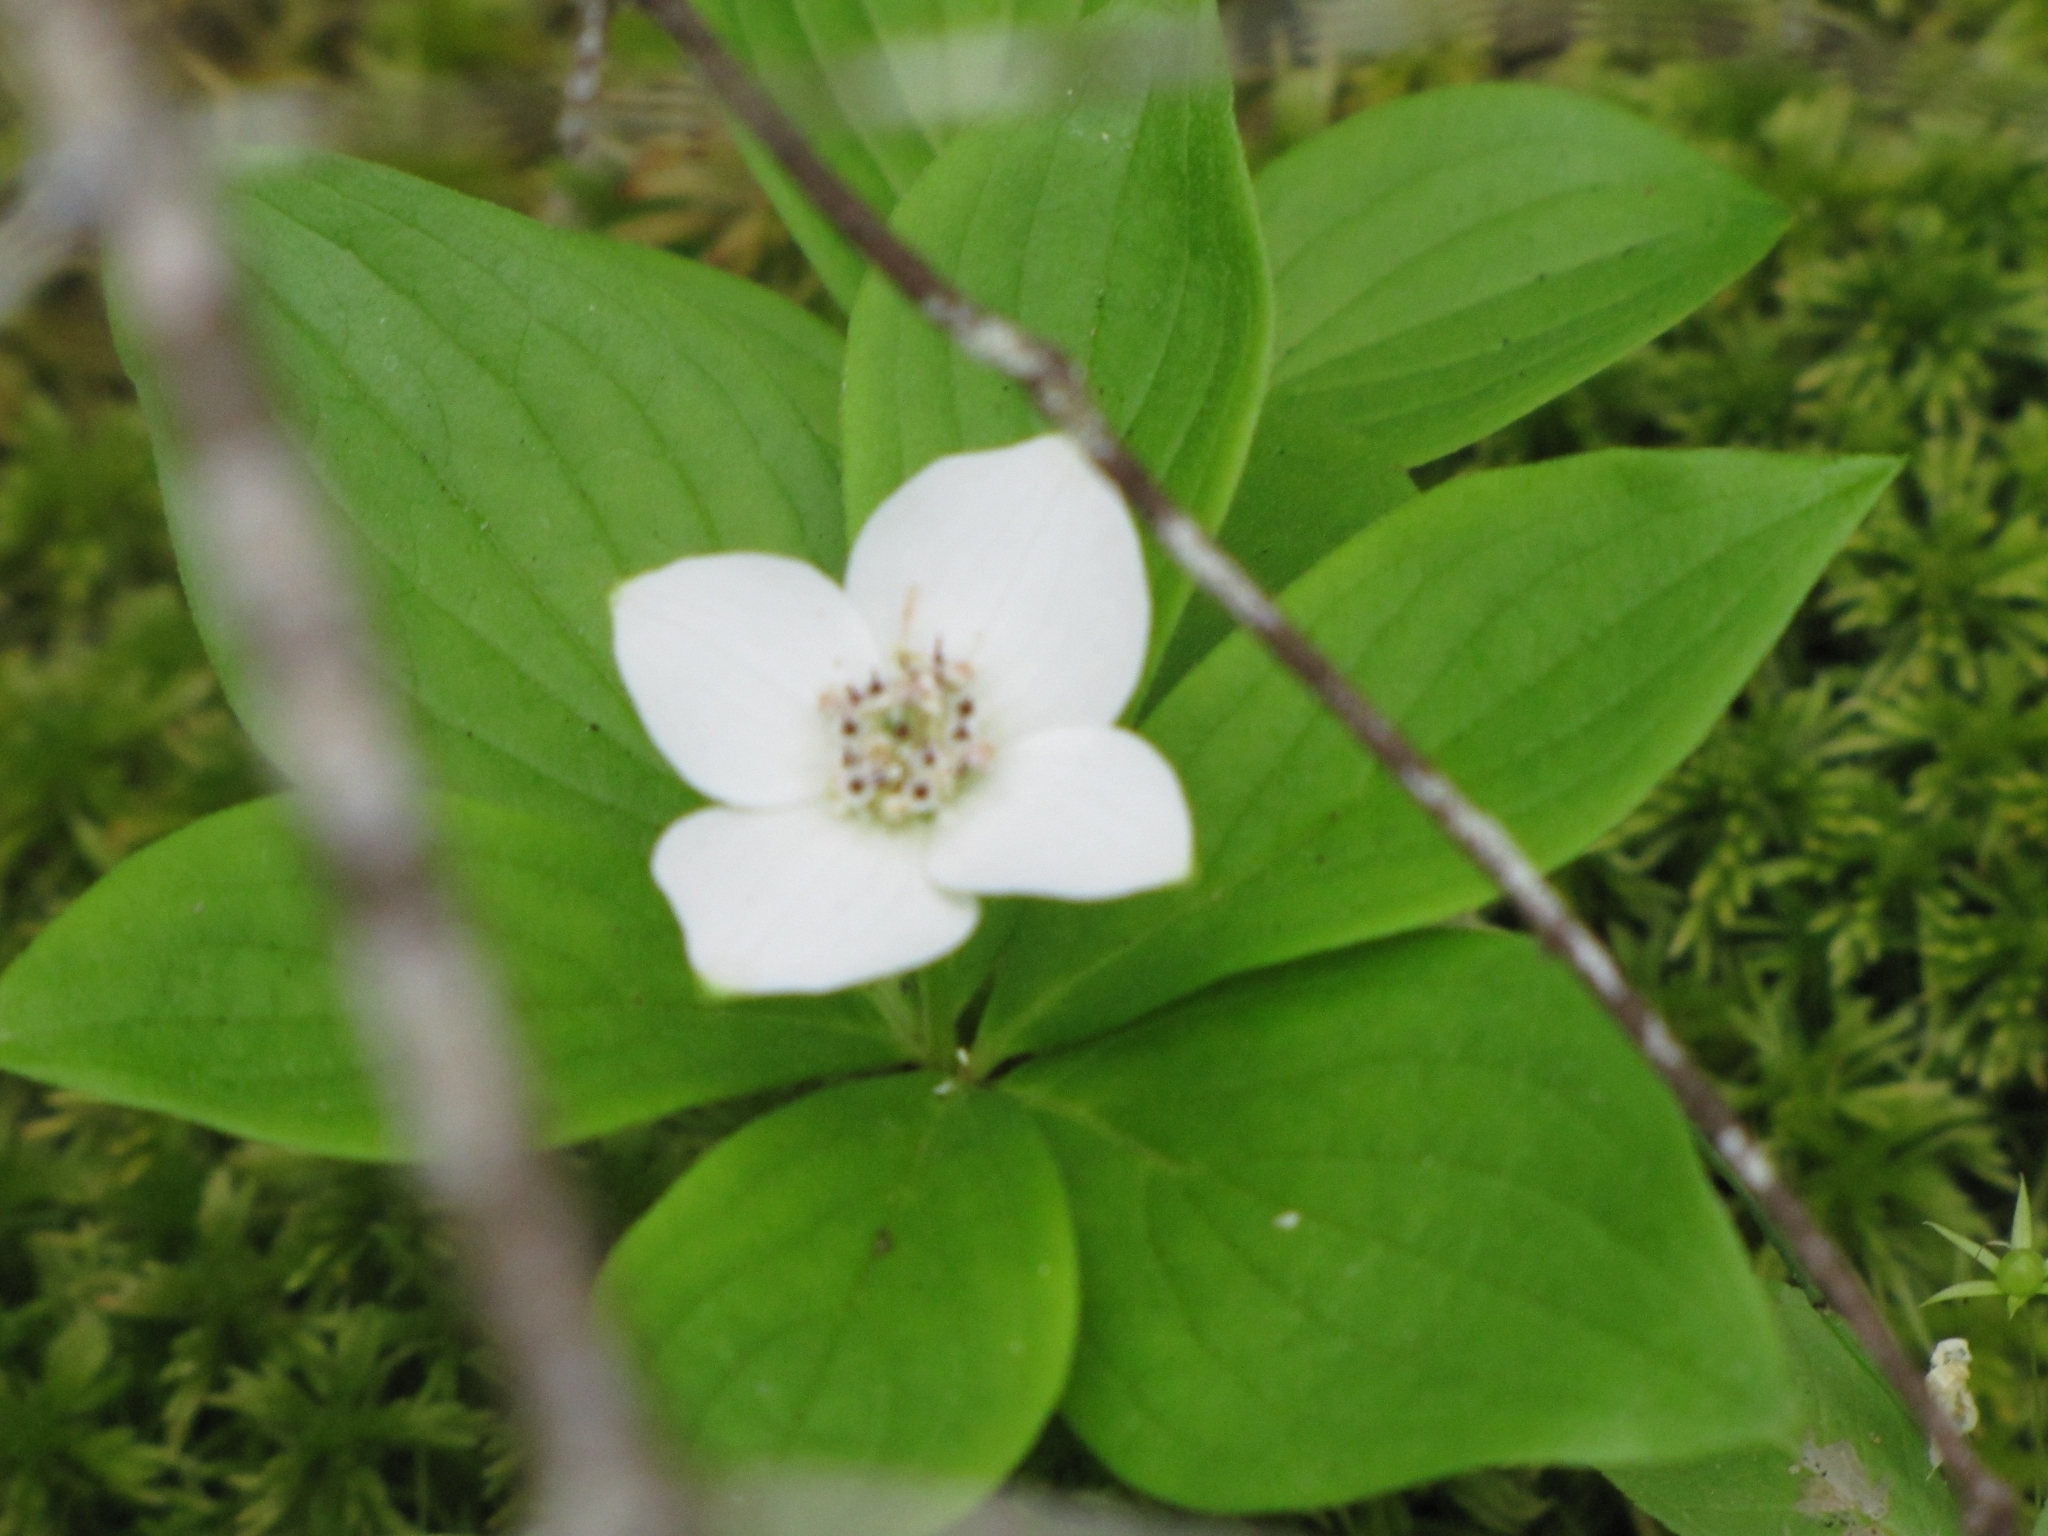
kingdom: Plantae
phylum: Tracheophyta
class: Magnoliopsida
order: Cornales
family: Cornaceae
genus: Cornus
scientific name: Cornus canadensis
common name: Creeping dogwood
